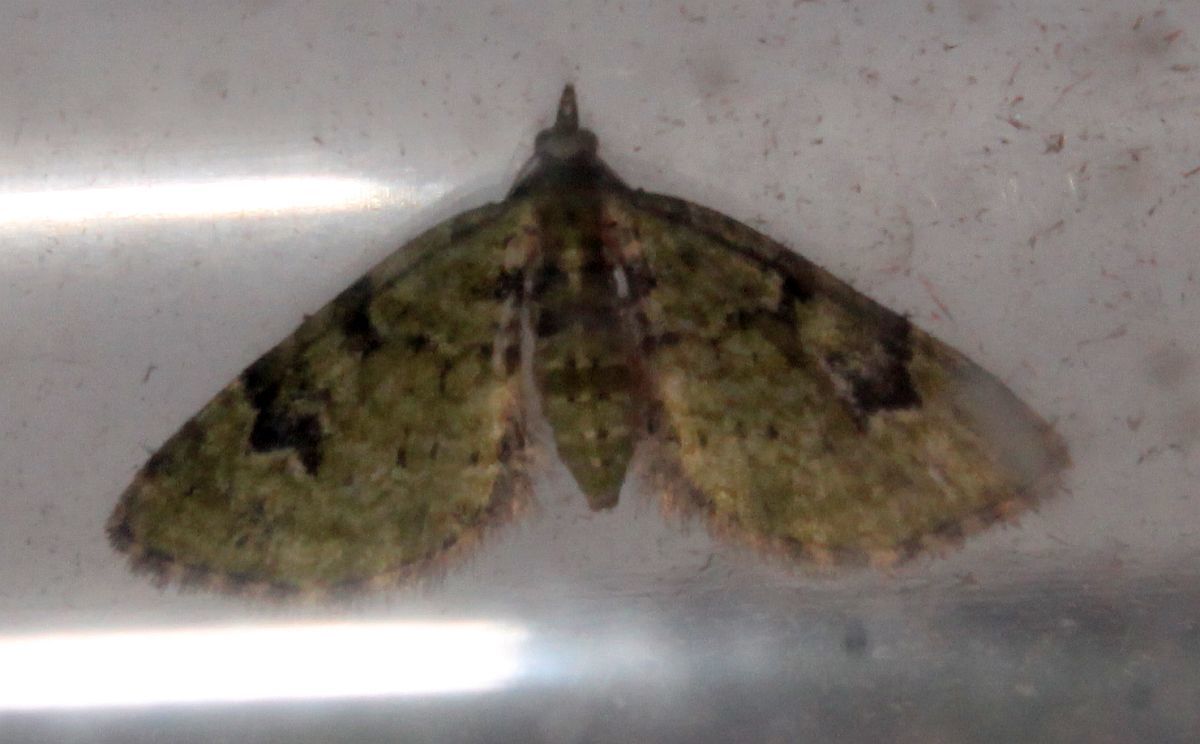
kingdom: Animalia
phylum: Arthropoda
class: Insecta
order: Lepidoptera
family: Geometridae
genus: Chloroclystis
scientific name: Chloroclystis v-ata
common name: V-pug
